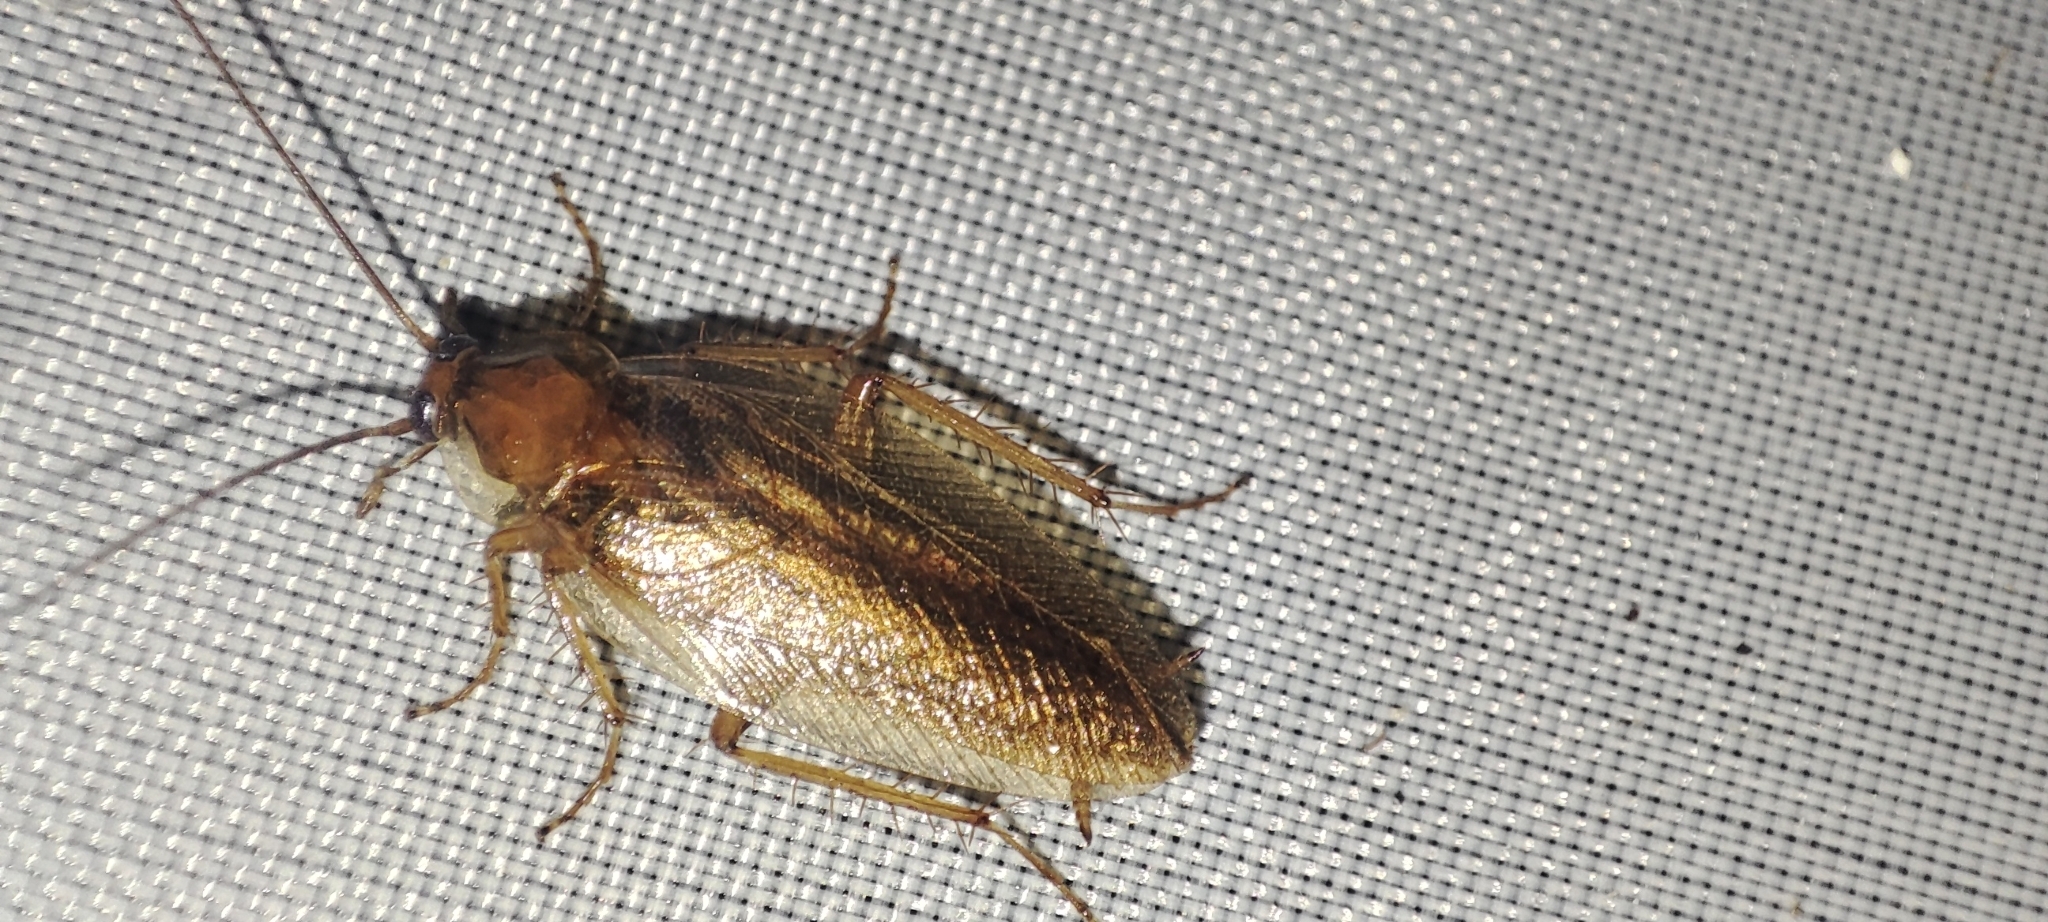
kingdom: Animalia
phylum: Arthropoda
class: Insecta
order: Blattodea
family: Ectobiidae
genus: Ectobius
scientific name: Ectobius vittiventris
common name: Garden cockroach
